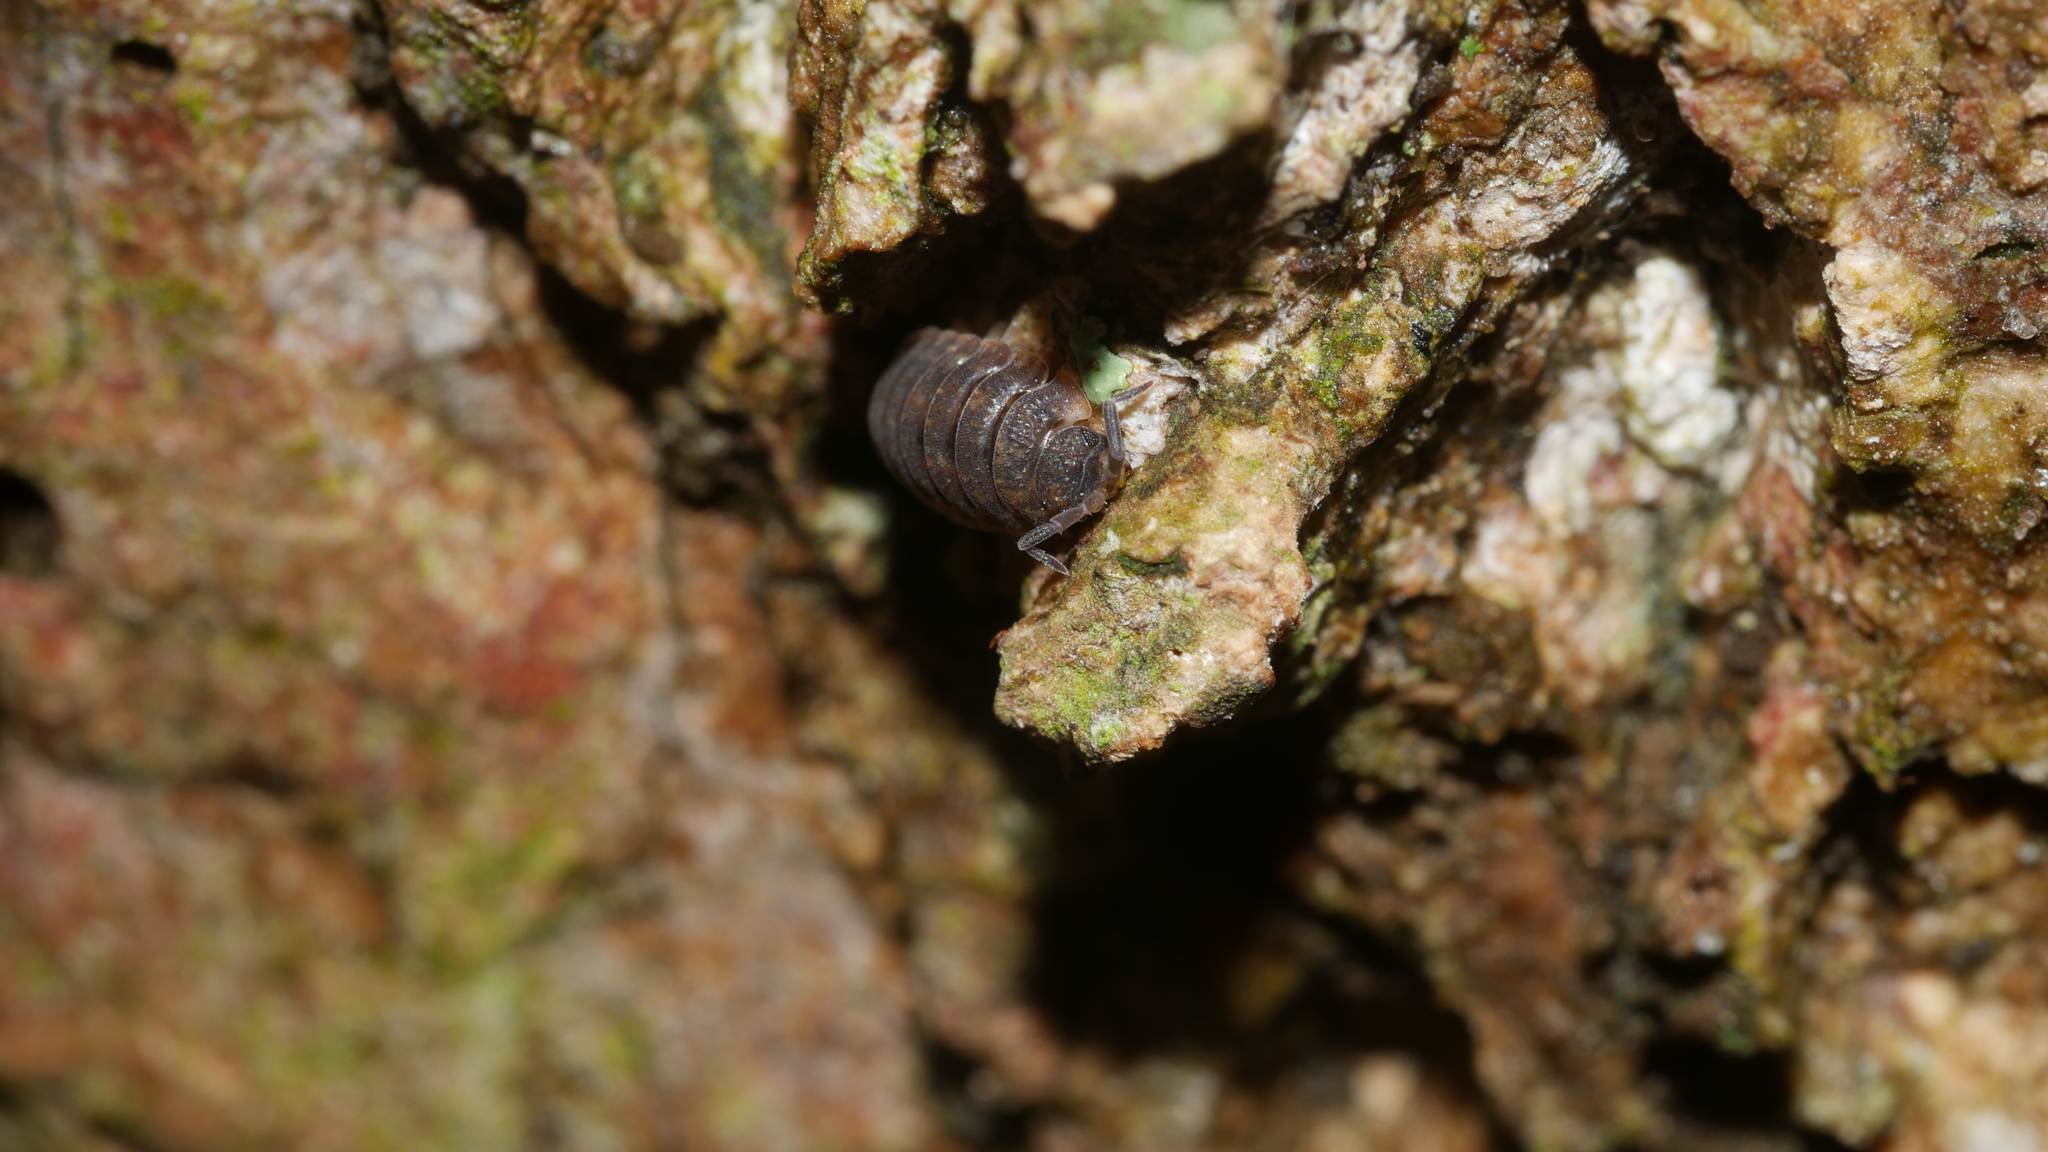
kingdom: Animalia
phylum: Arthropoda
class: Malacostraca
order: Isopoda
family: Porcellionidae
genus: Porcellio
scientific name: Porcellio scaber
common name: Common rough woodlouse
